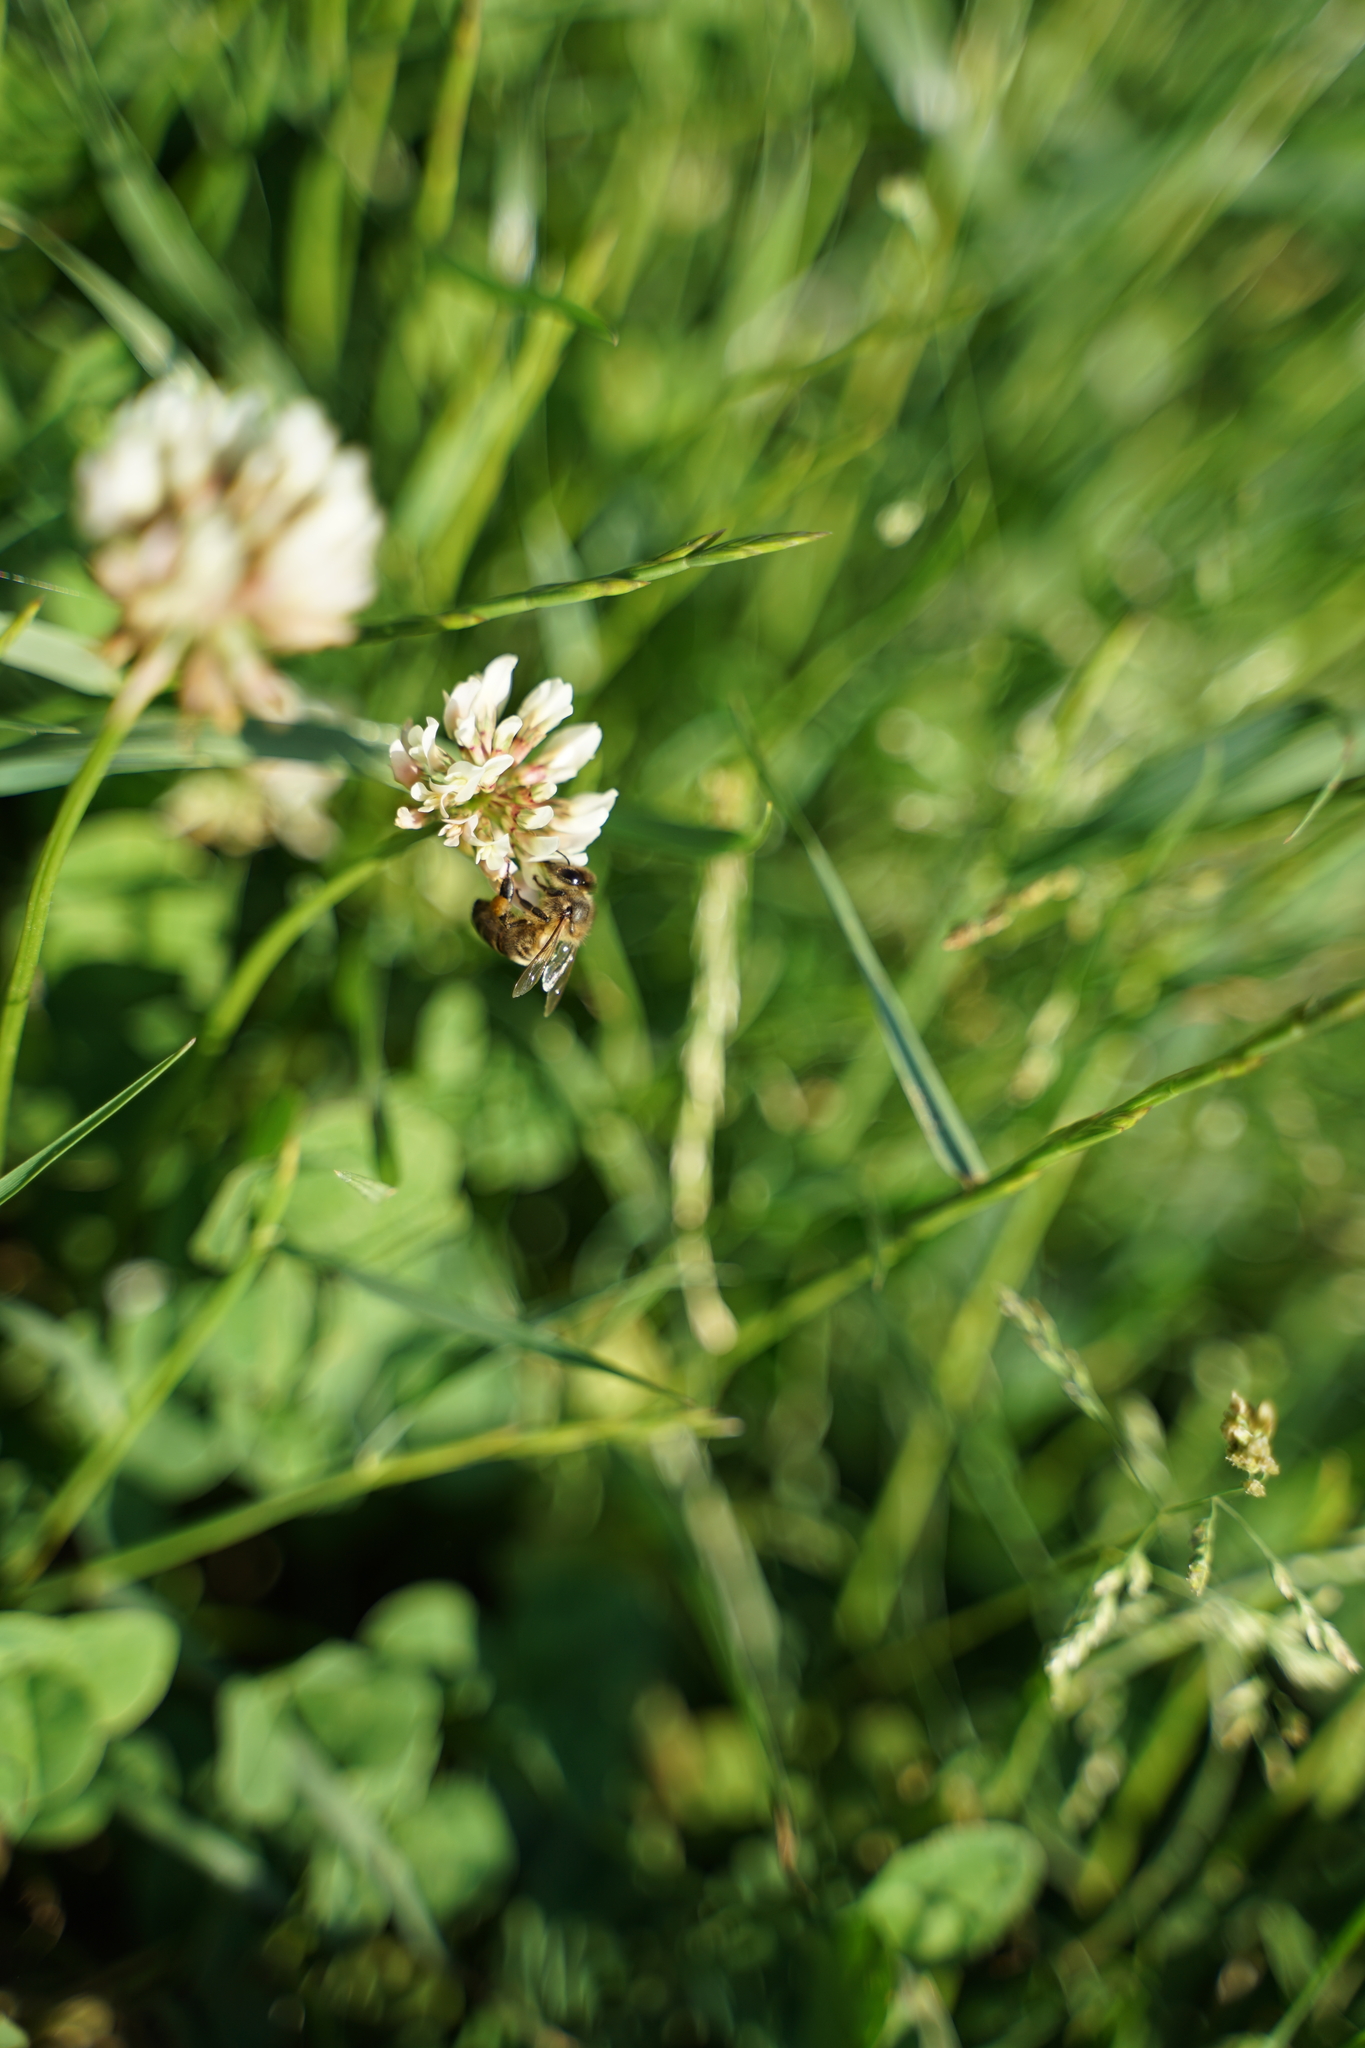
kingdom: Plantae
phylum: Tracheophyta
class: Magnoliopsida
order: Fabales
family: Fabaceae
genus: Trifolium
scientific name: Trifolium repens
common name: White clover
